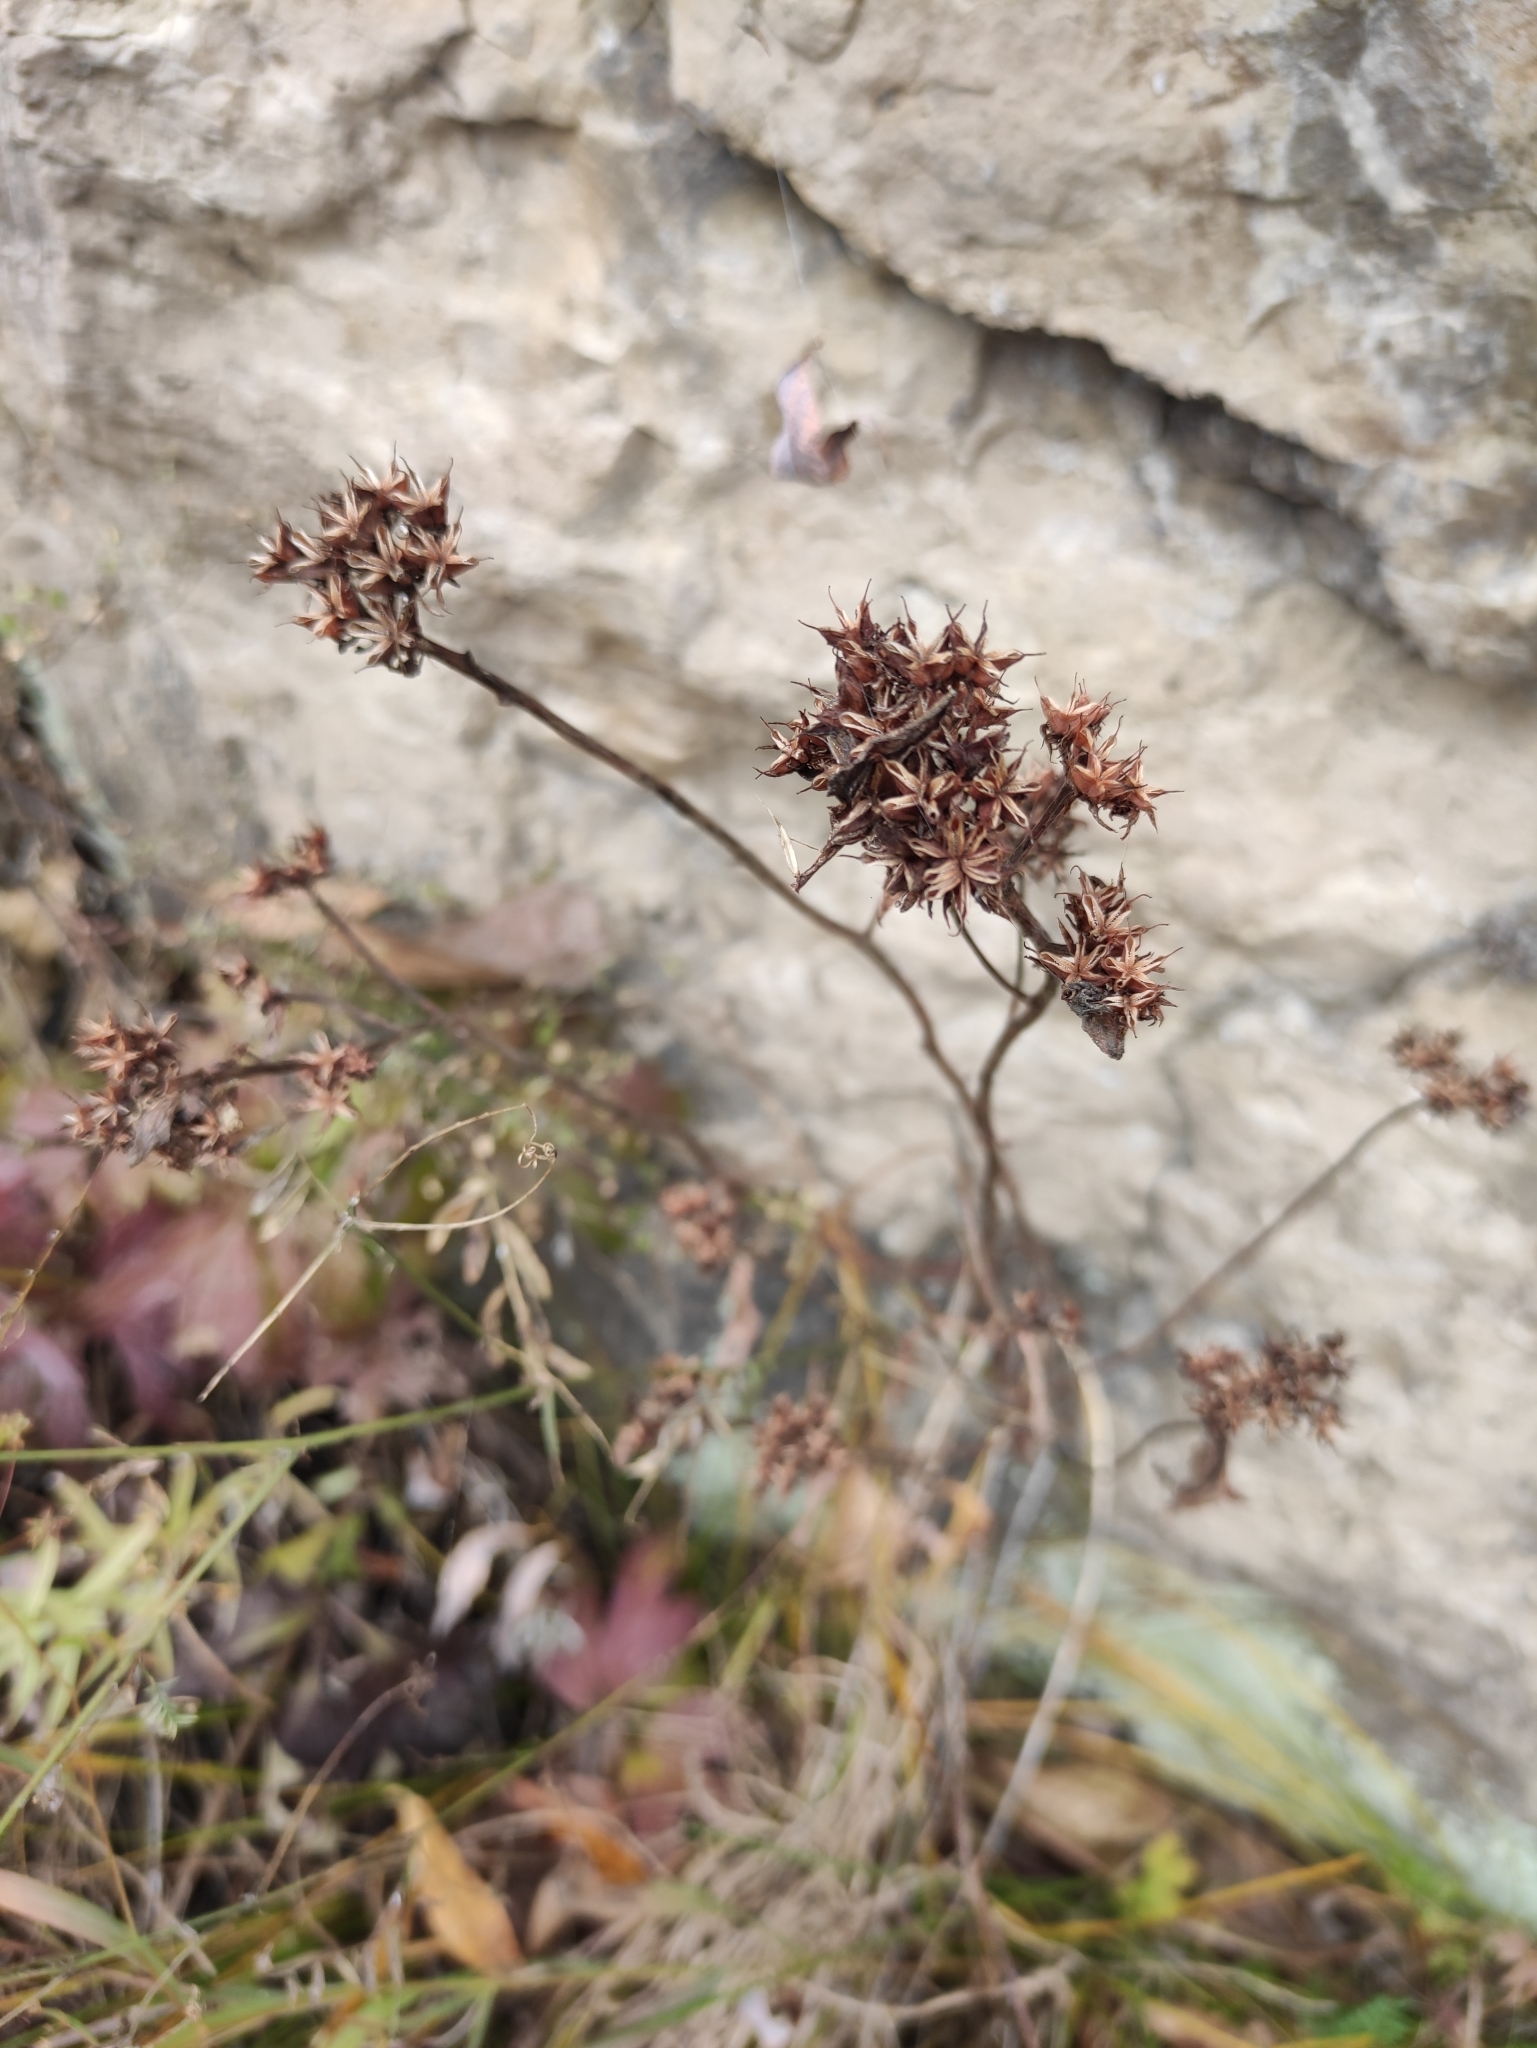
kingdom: Plantae
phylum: Tracheophyta
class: Magnoliopsida
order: Saxifragales
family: Crassulaceae
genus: Phedimus
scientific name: Phedimus aizoon
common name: Orpin aizoon
